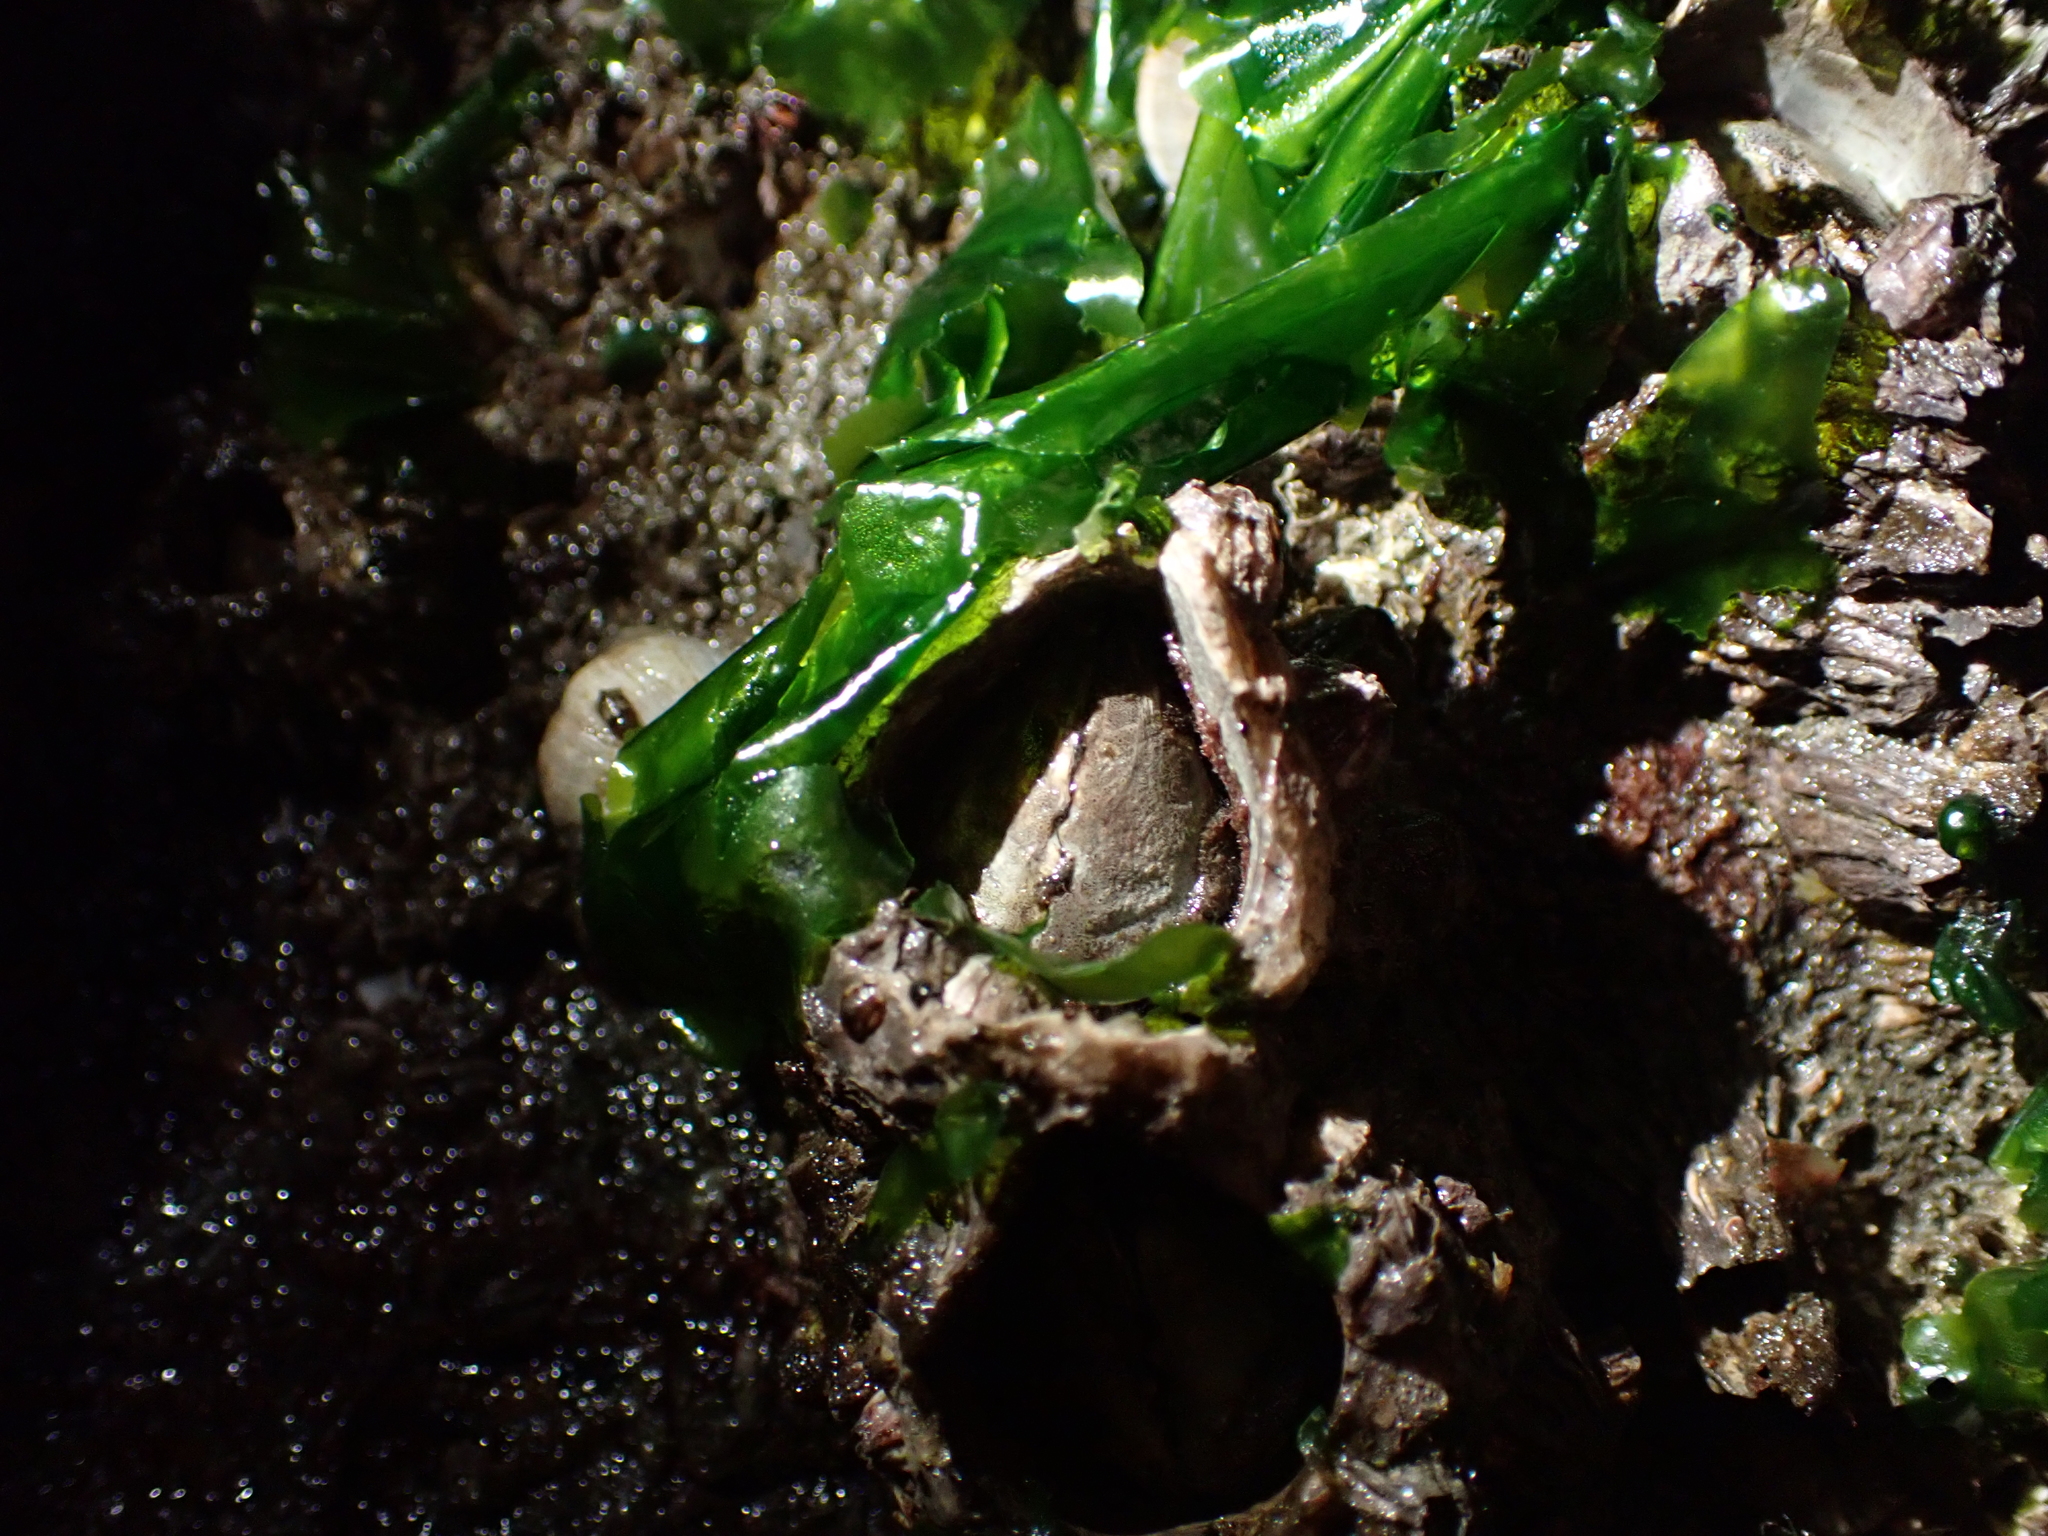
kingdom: Animalia
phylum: Arthropoda
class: Maxillopoda
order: Sessilia
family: Archaeobalanidae
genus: Semibalanus
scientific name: Semibalanus cariosus
